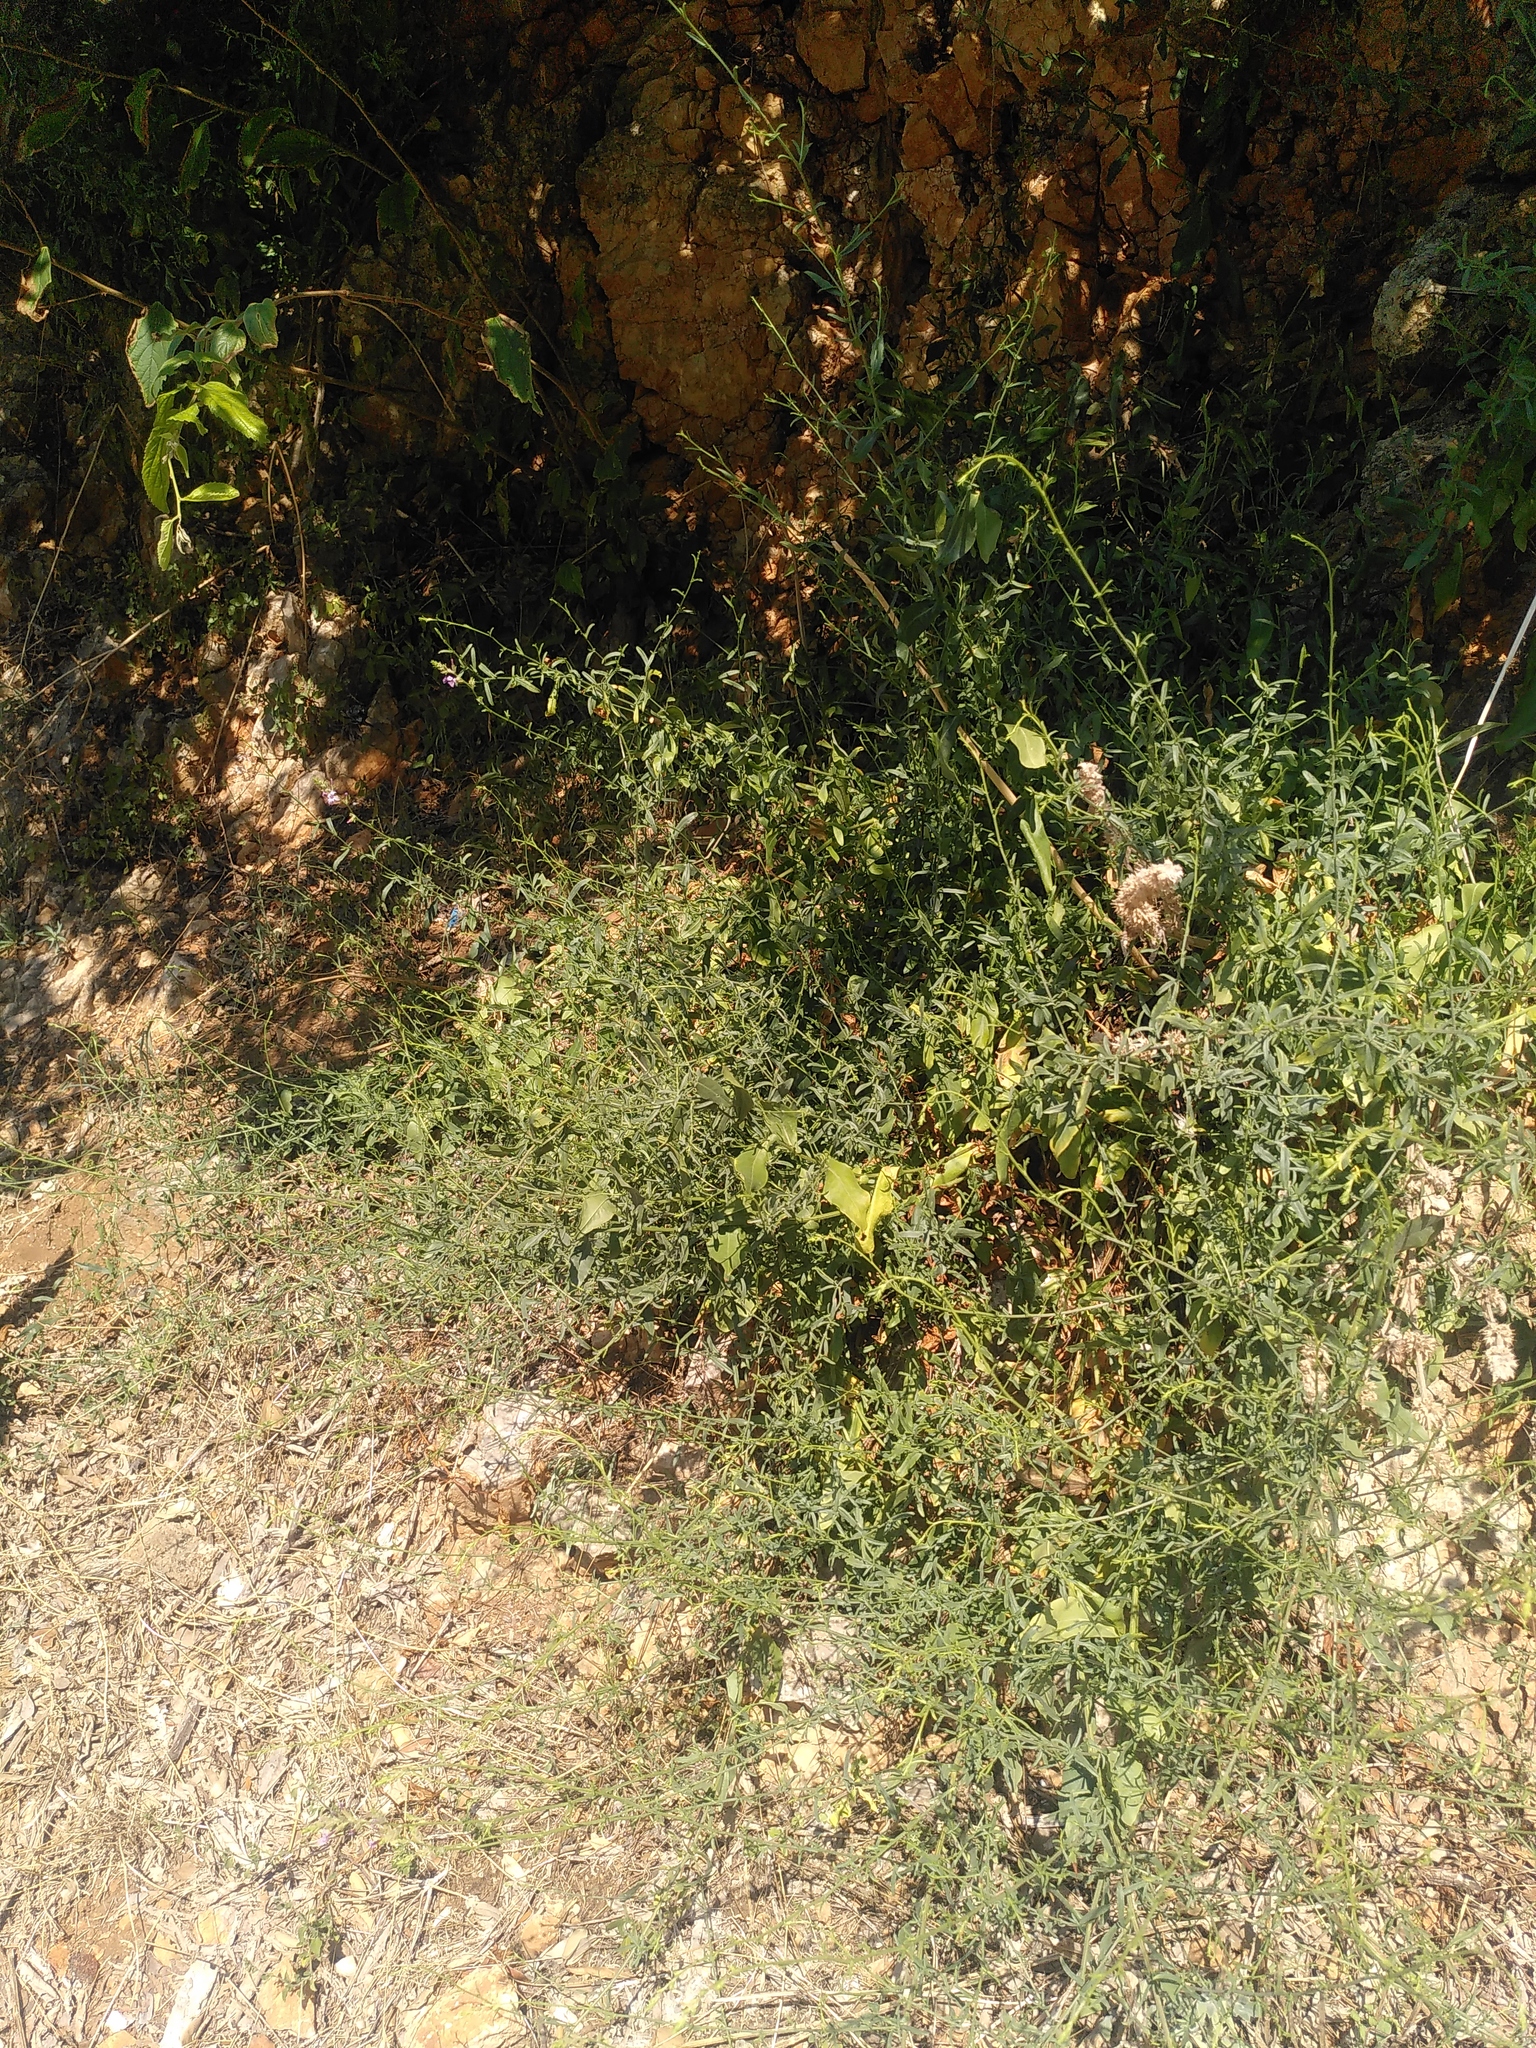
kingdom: Plantae
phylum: Tracheophyta
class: Magnoliopsida
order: Caryophyllales
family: Plumbaginaceae
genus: Plumbago
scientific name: Plumbago europaea
